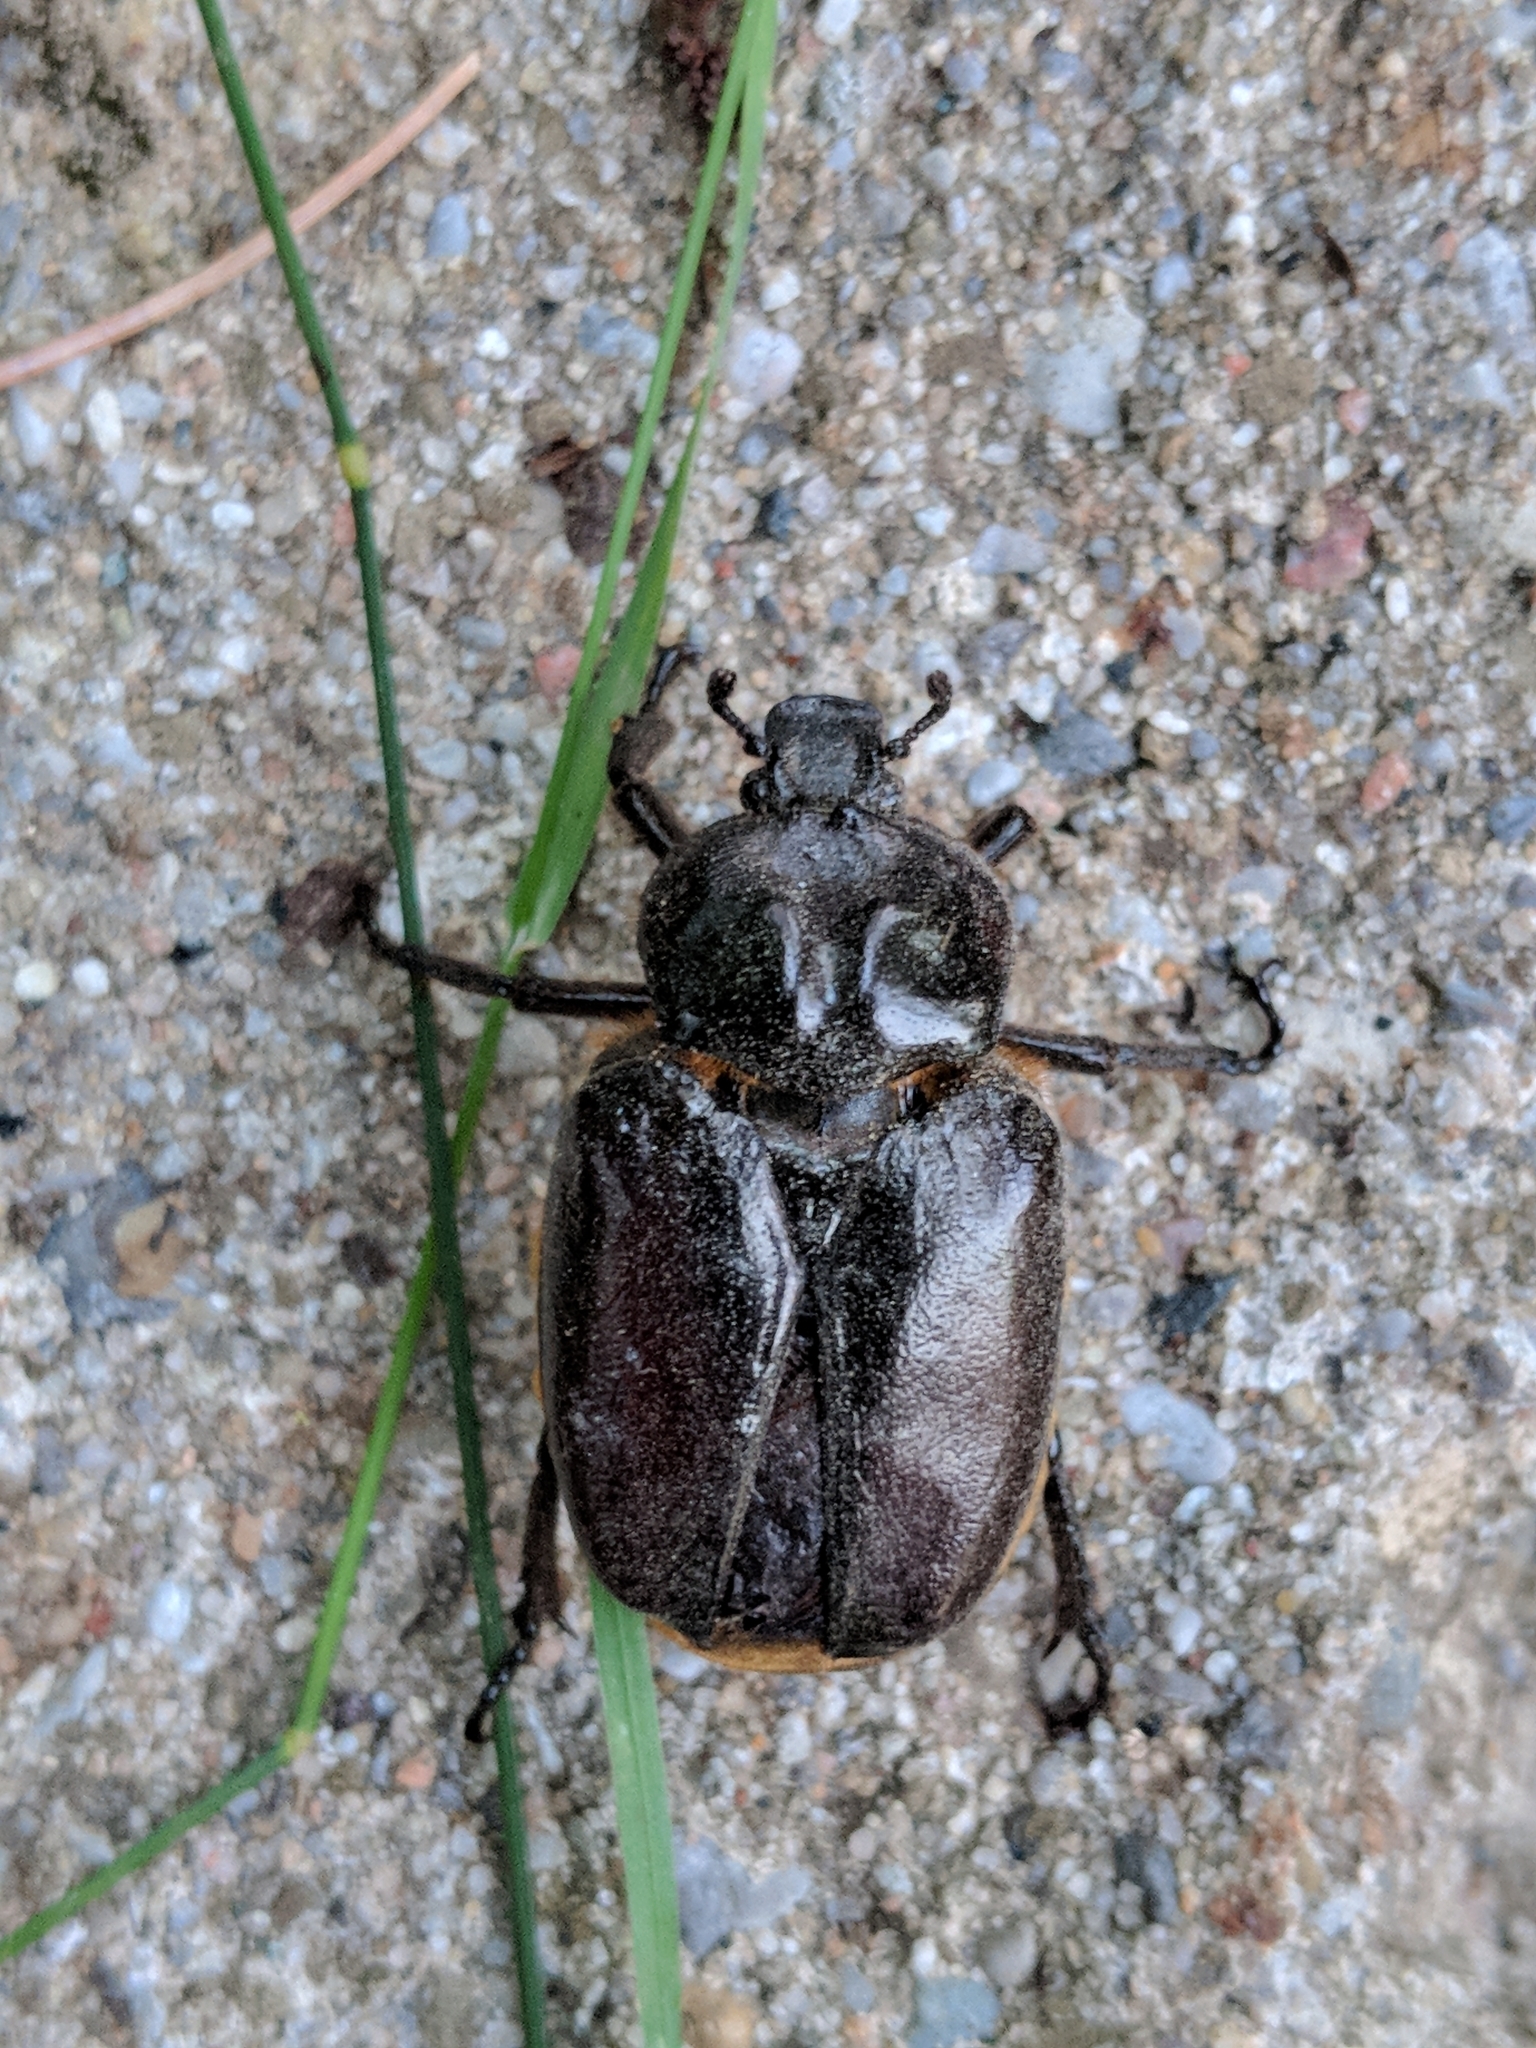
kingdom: Animalia
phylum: Arthropoda
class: Insecta
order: Coleoptera
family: Scarabaeidae
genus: Osmoderma
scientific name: Osmoderma eremicola
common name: Hermit flower beetle
